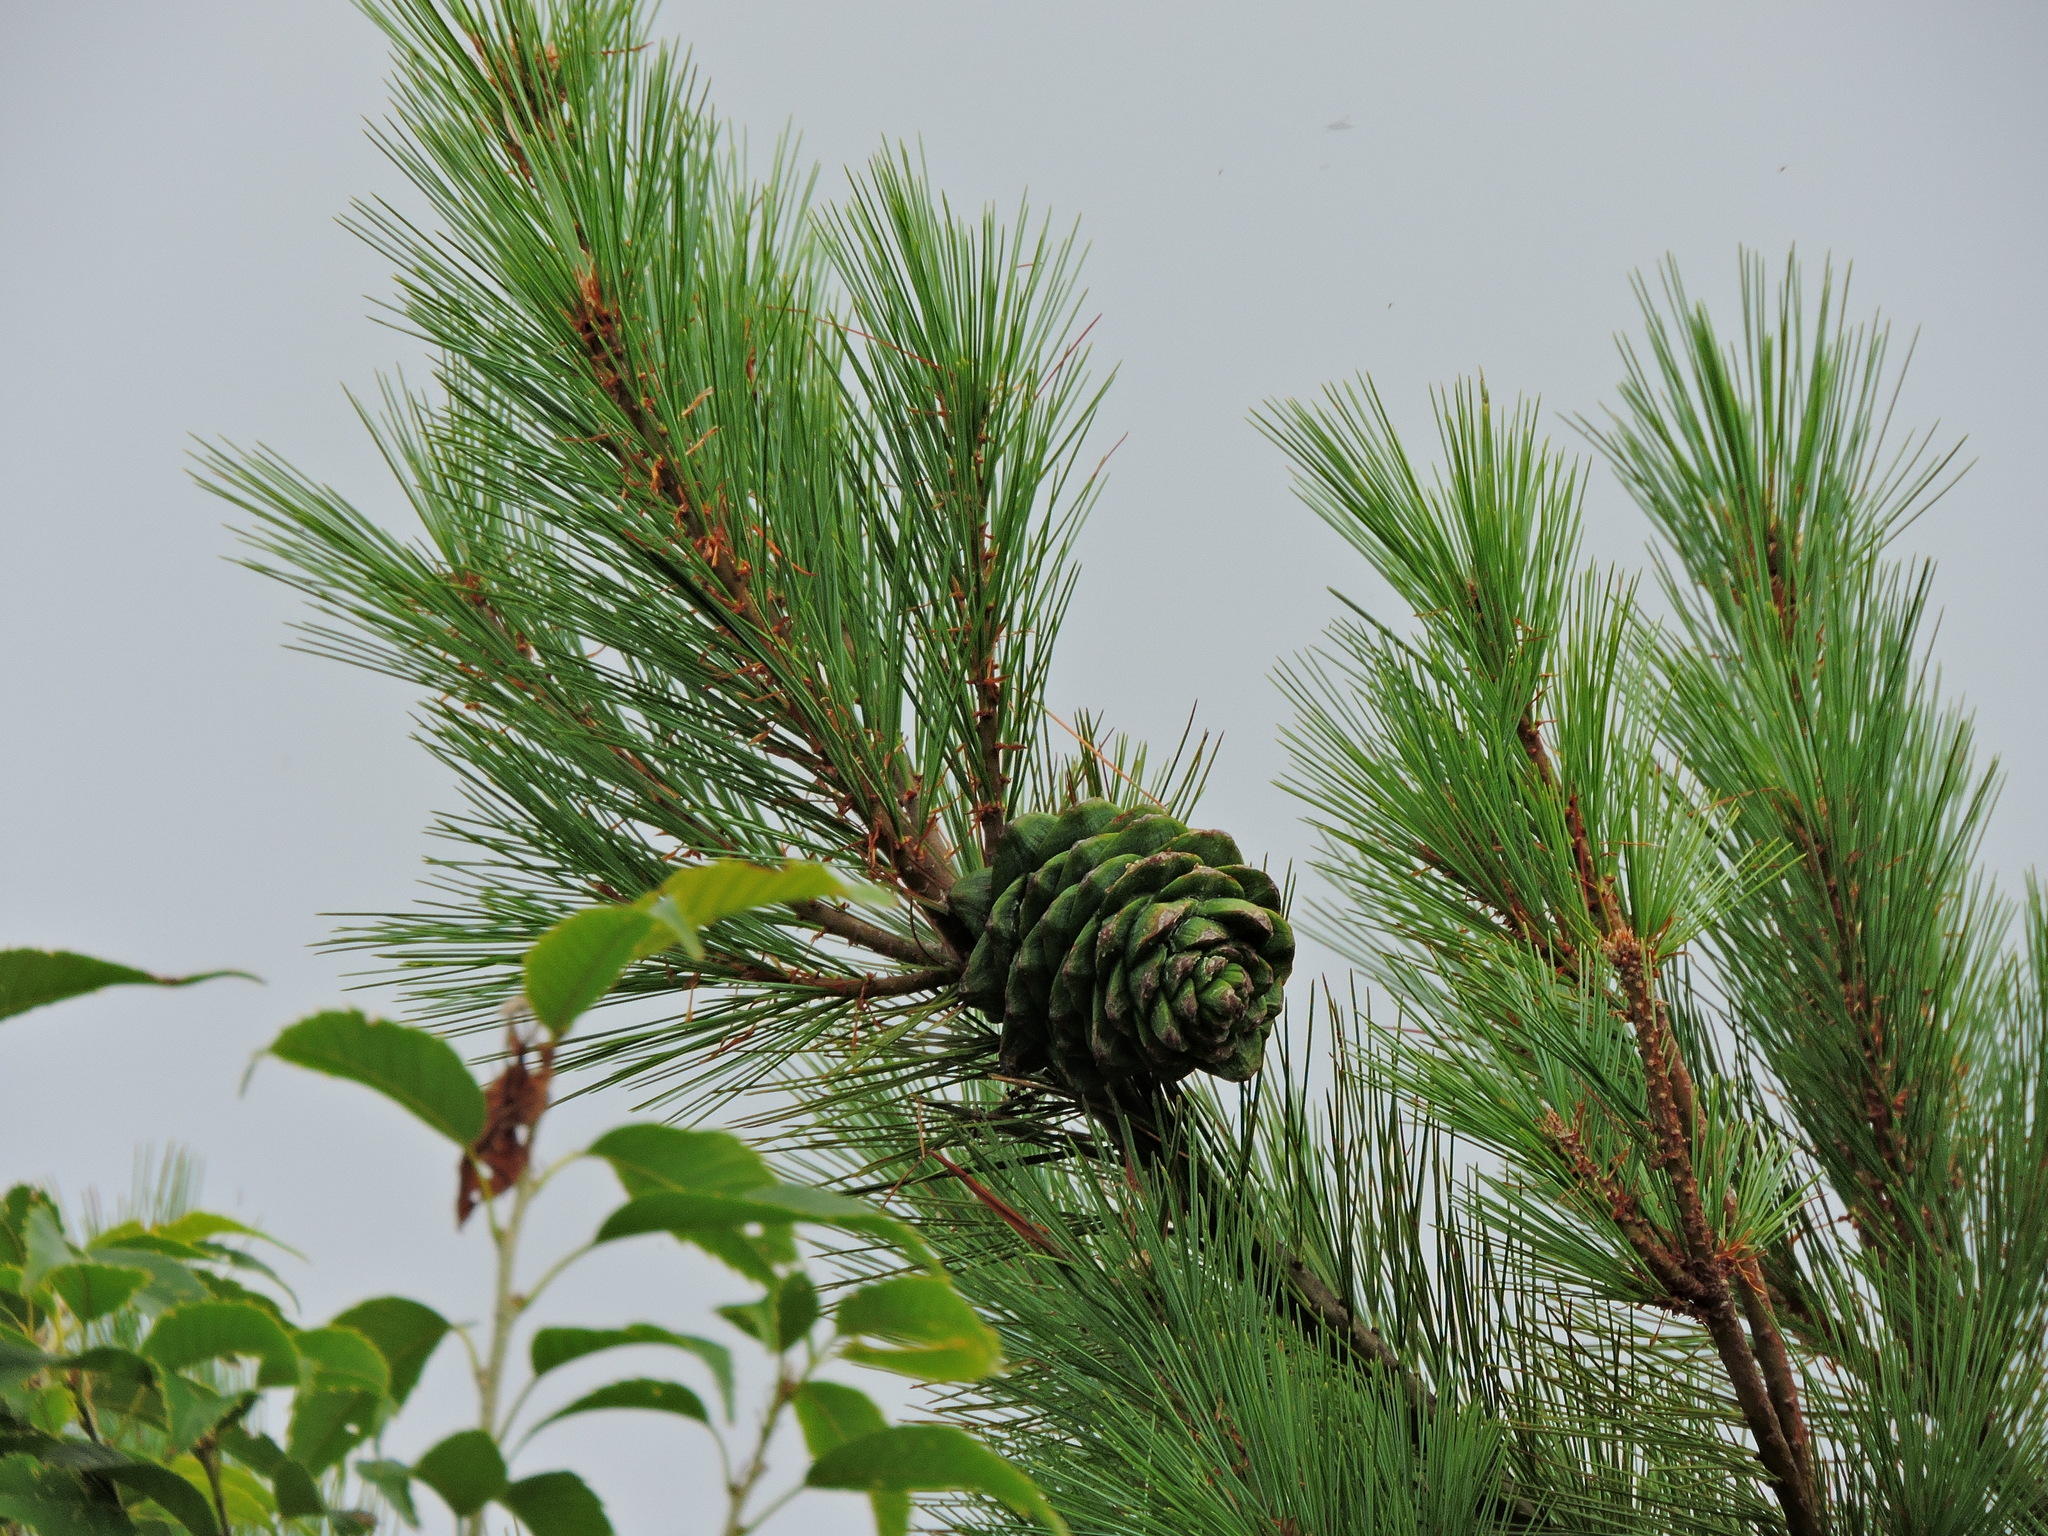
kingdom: Plantae
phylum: Tracheophyta
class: Pinopsida
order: Pinales
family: Pinaceae
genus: Pinus
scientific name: Pinus armandii
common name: Armand's pine
